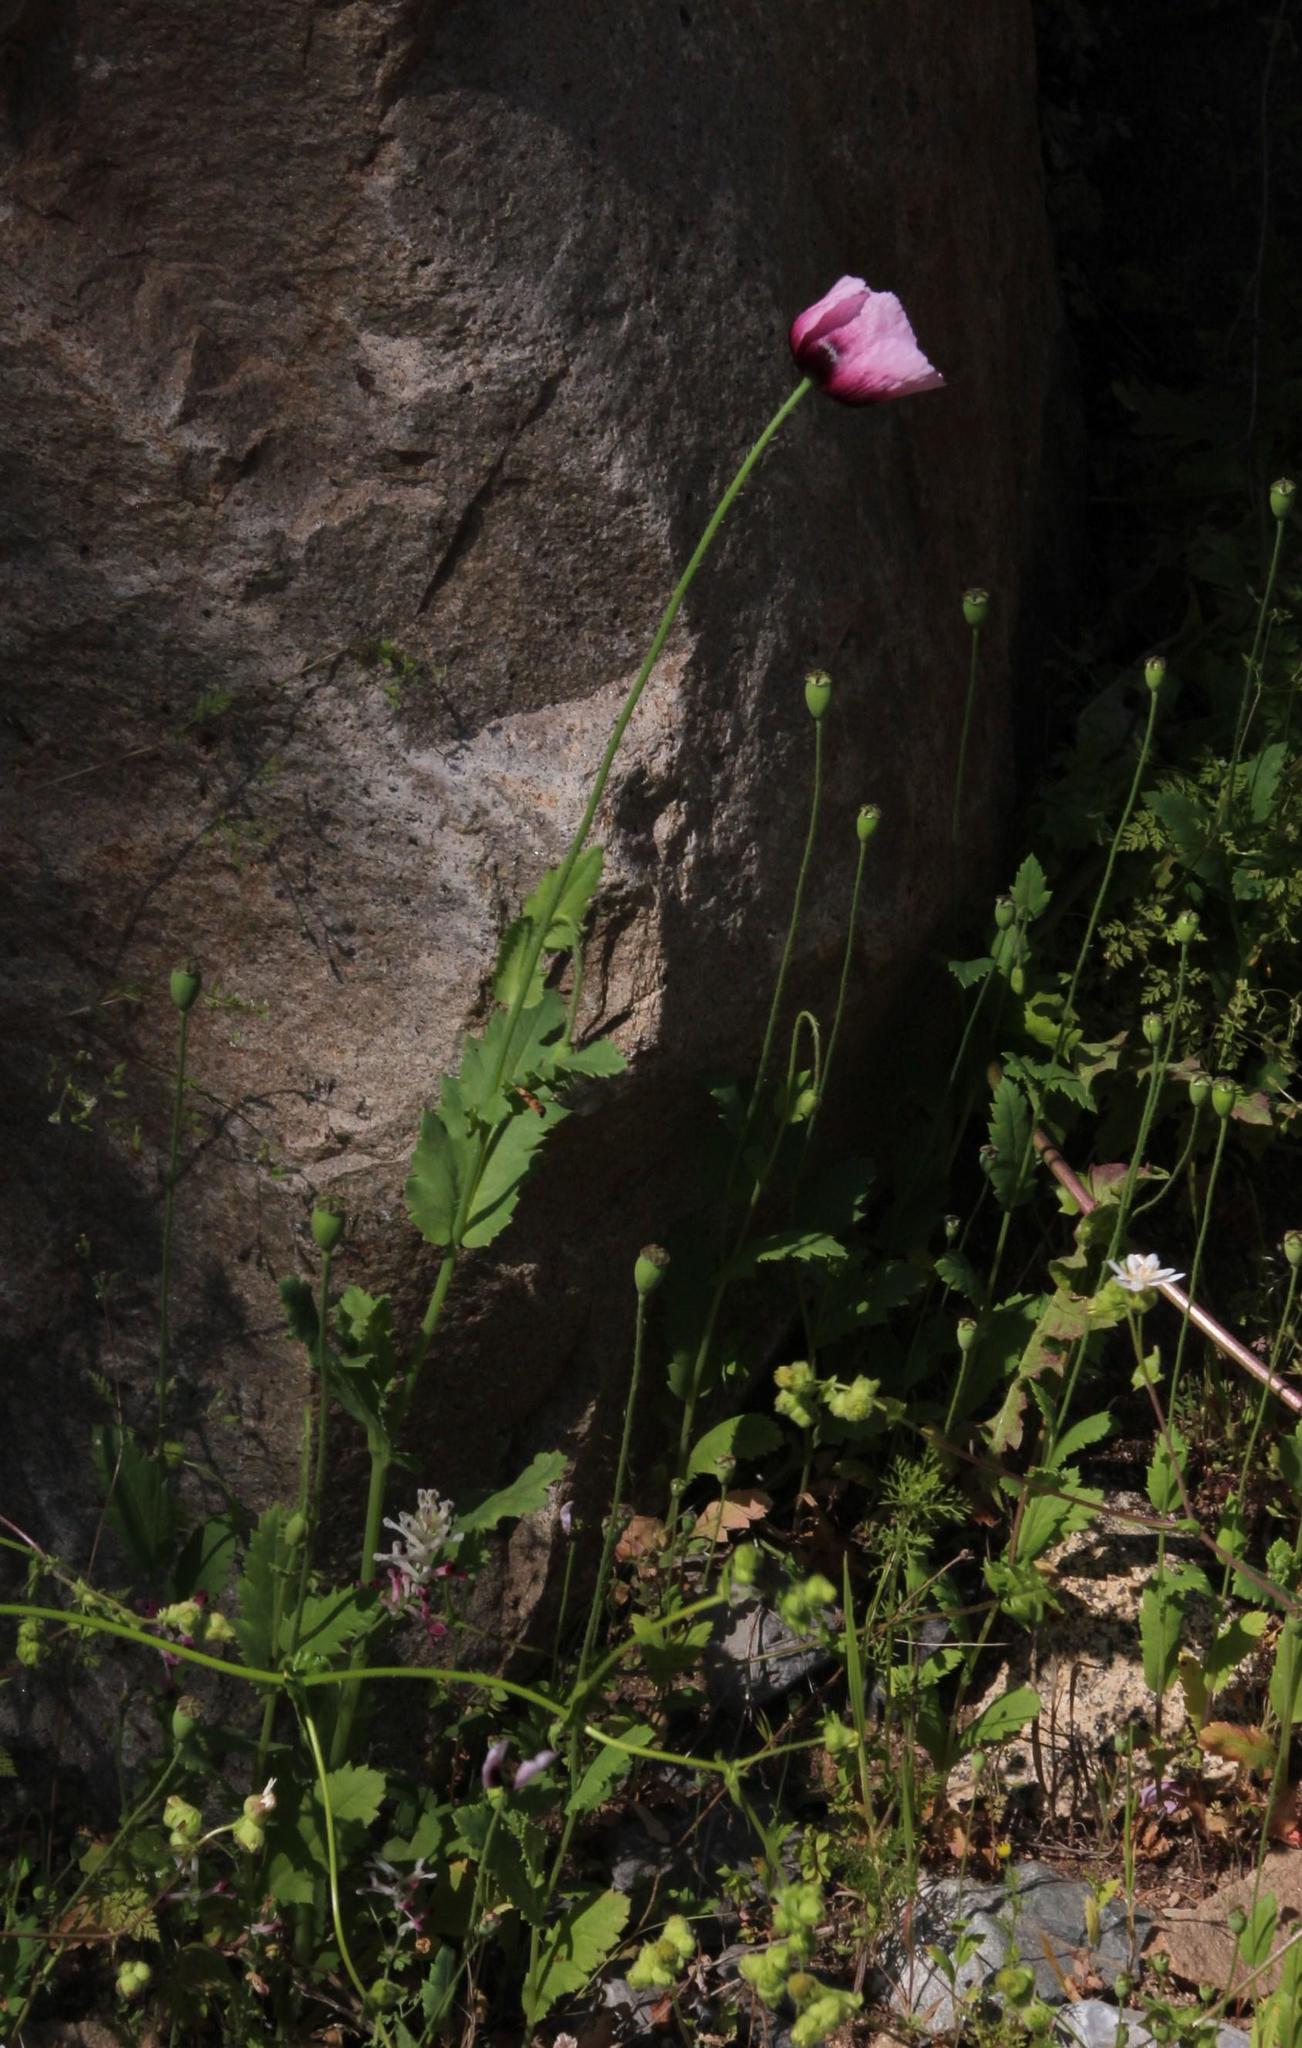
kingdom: Plantae
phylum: Tracheophyta
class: Magnoliopsida
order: Ranunculales
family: Papaveraceae
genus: Papaver
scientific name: Papaver somniferum
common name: Opium poppy
